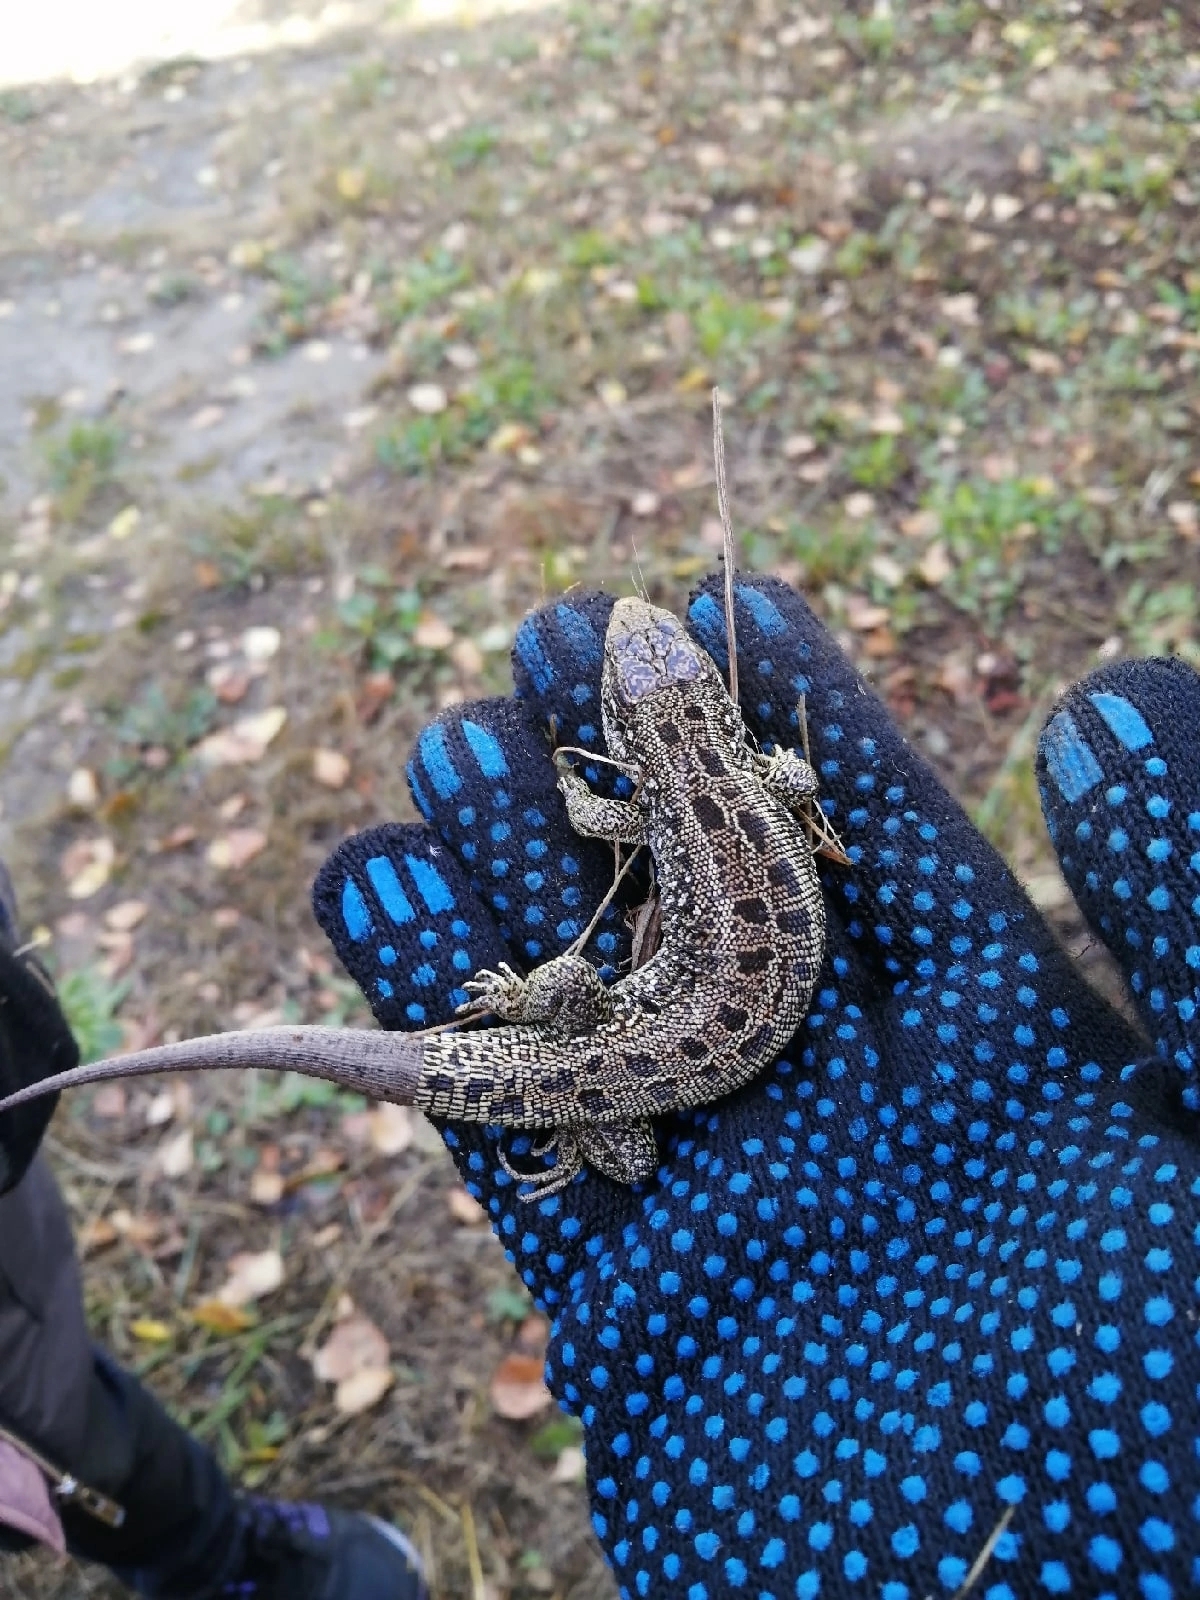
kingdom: Animalia
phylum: Chordata
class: Squamata
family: Lacertidae
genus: Lacerta
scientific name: Lacerta agilis
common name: Sand lizard
